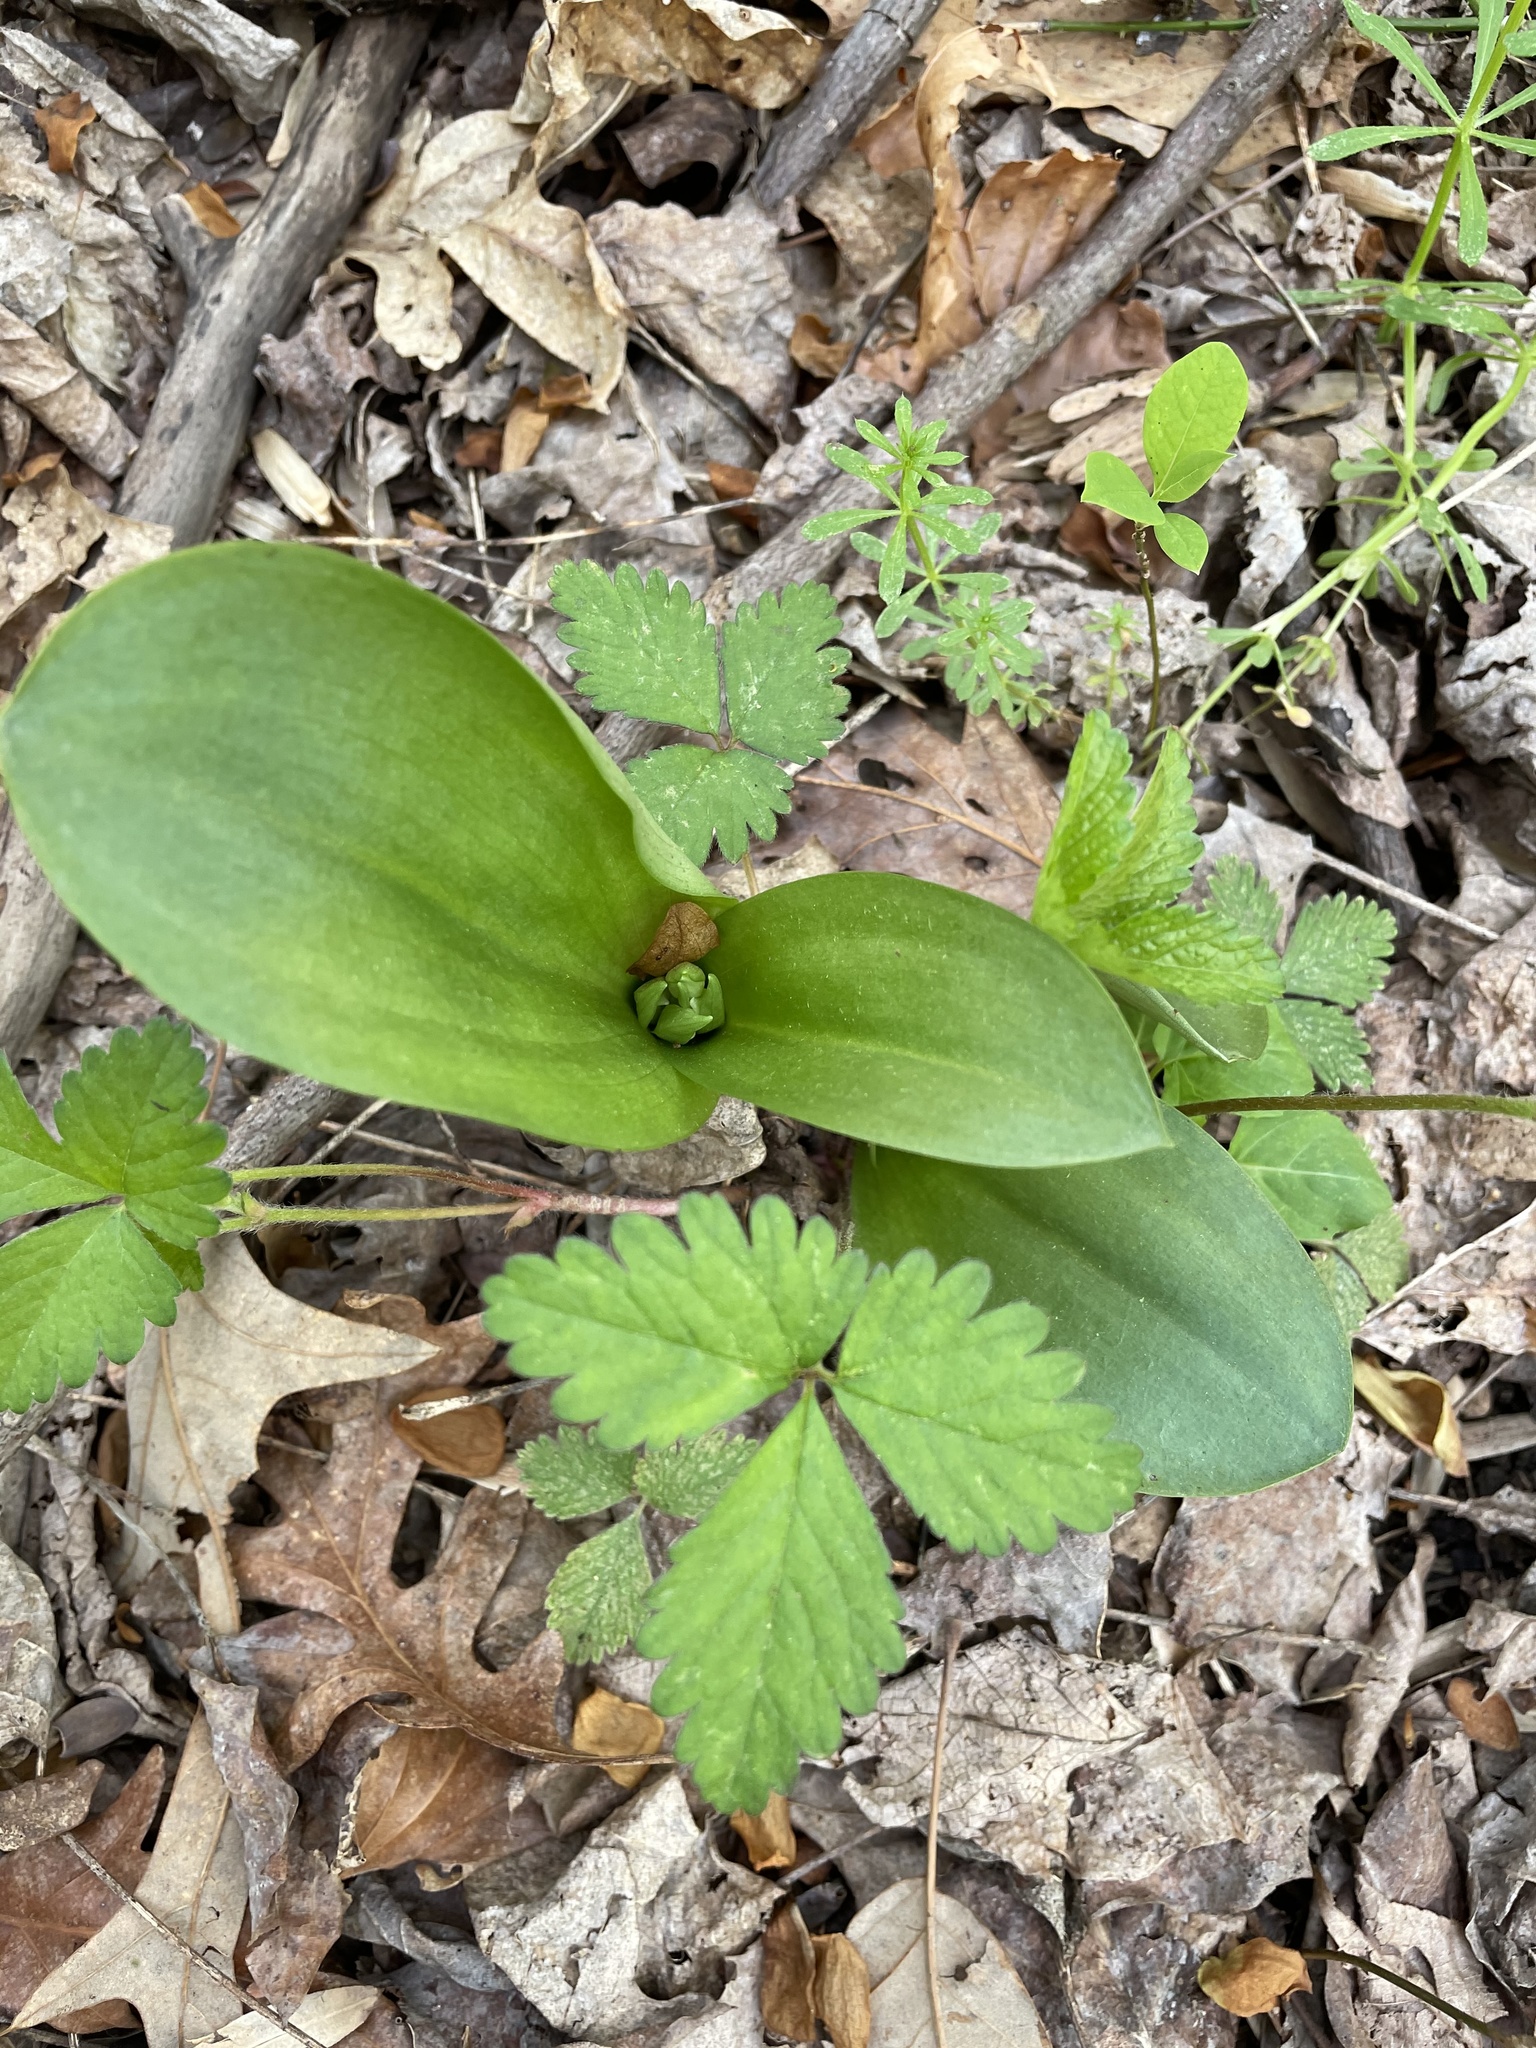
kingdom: Plantae
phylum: Tracheophyta
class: Liliopsida
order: Asparagales
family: Orchidaceae
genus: Galearis
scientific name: Galearis spectabilis
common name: Purple-hooded orchis
